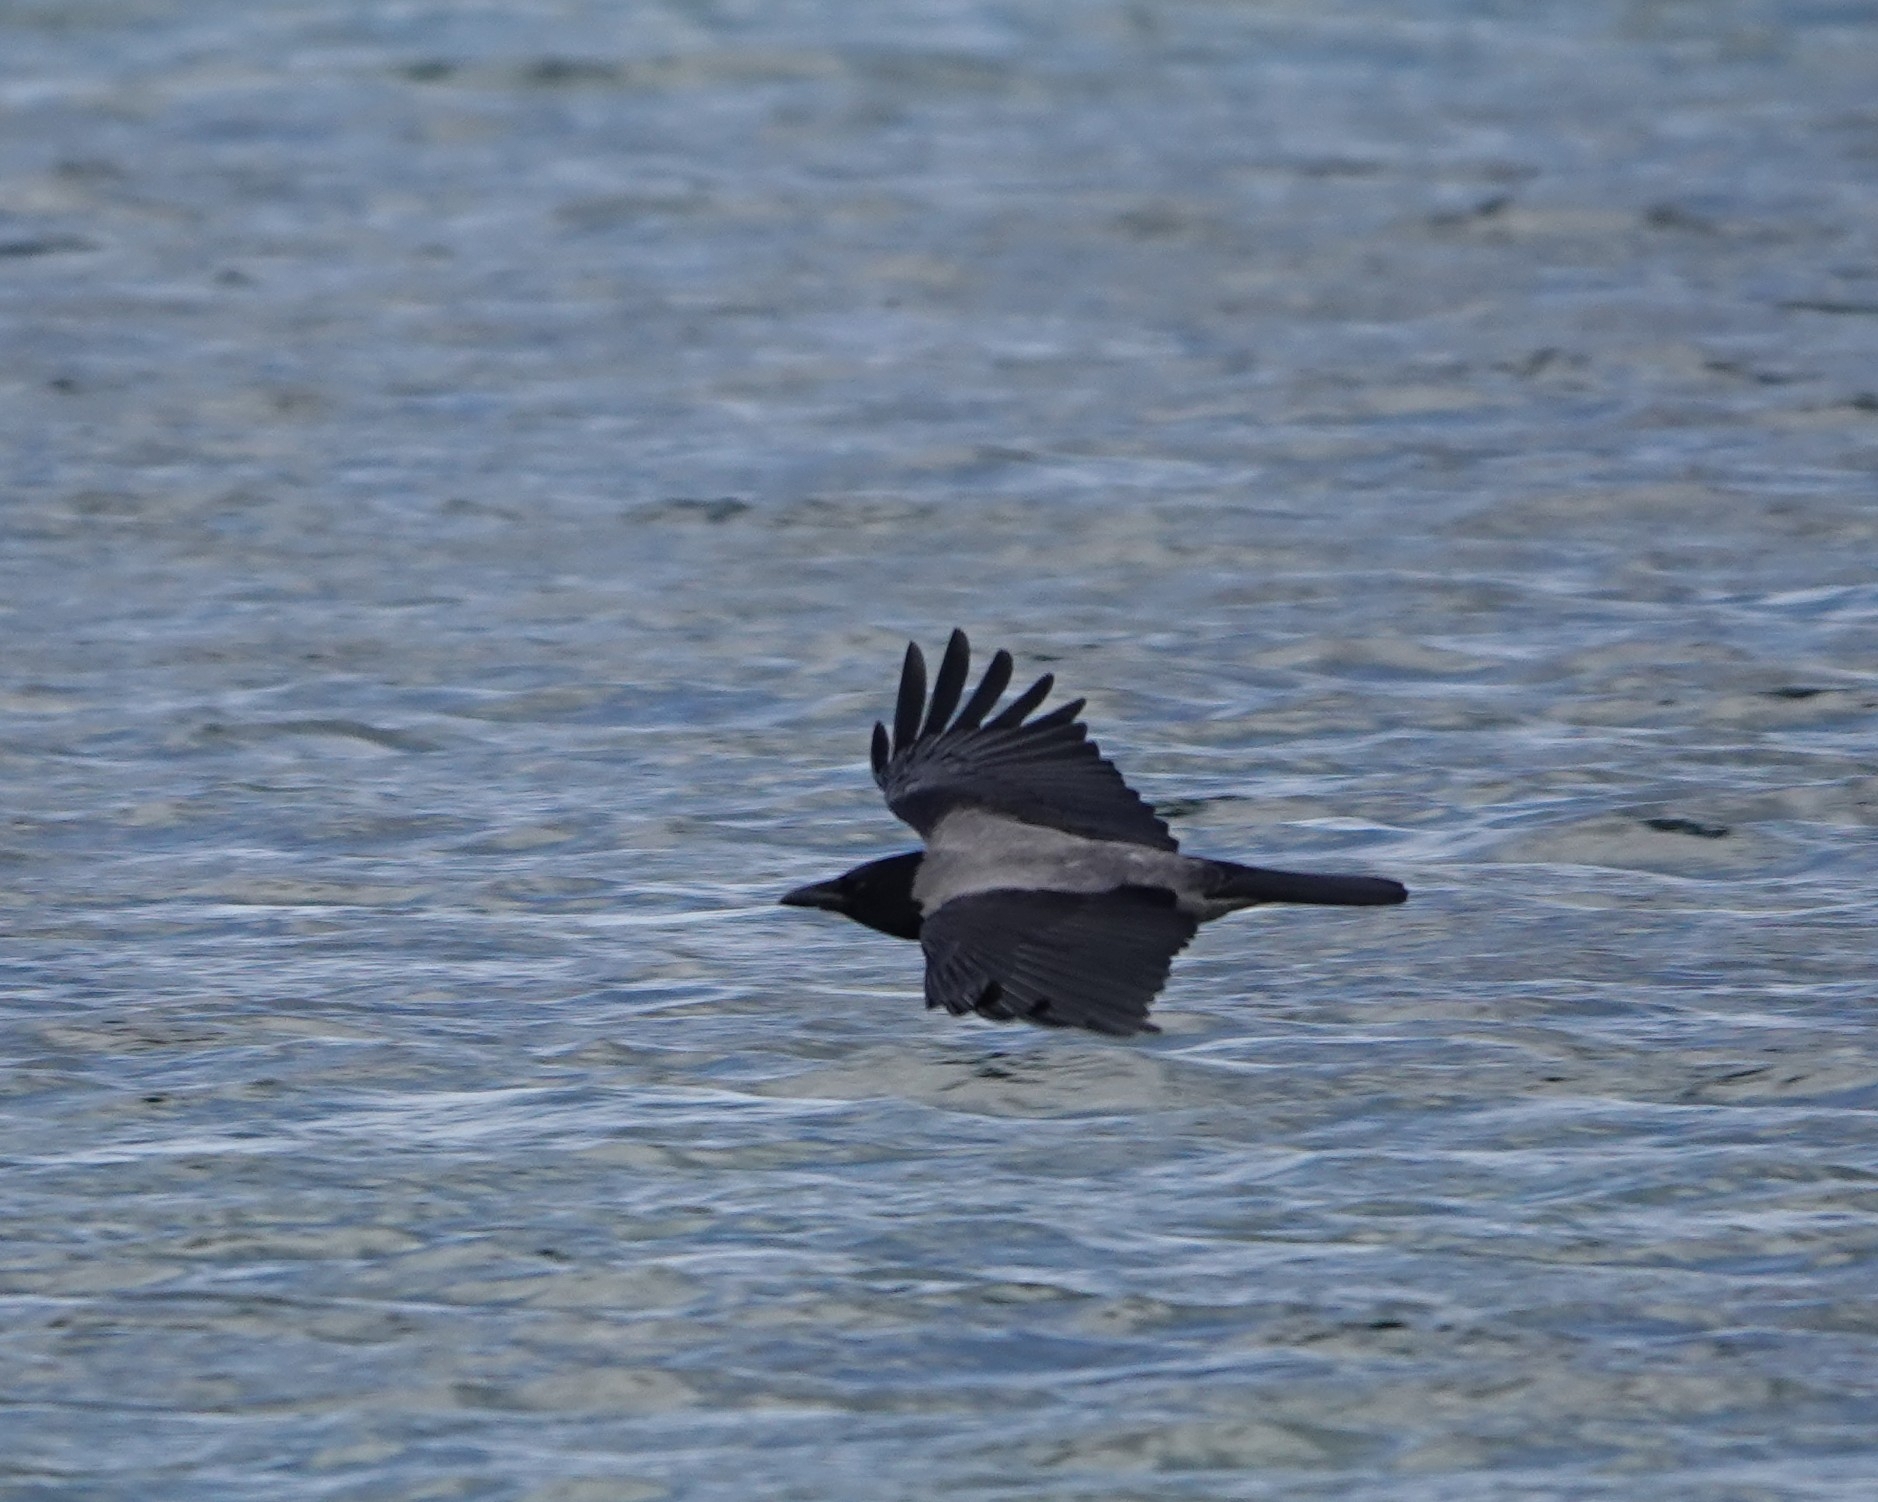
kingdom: Animalia
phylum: Chordata
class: Aves
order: Passeriformes
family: Corvidae
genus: Corvus
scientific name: Corvus cornix
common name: Hooded crow
